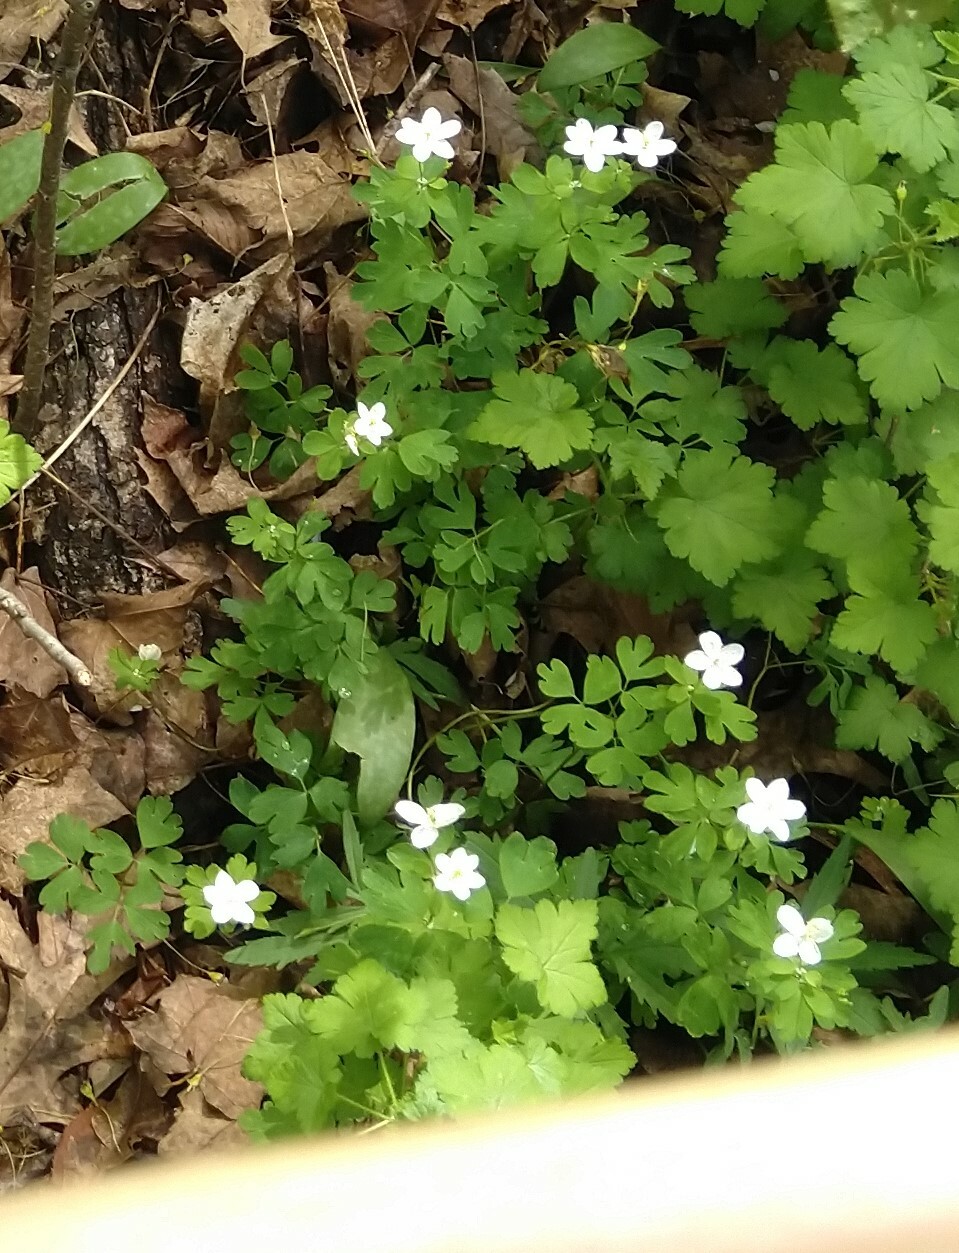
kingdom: Plantae
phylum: Tracheophyta
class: Magnoliopsida
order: Ranunculales
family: Ranunculaceae
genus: Enemion
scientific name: Enemion biternatum
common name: Eastern false rue-anemone
